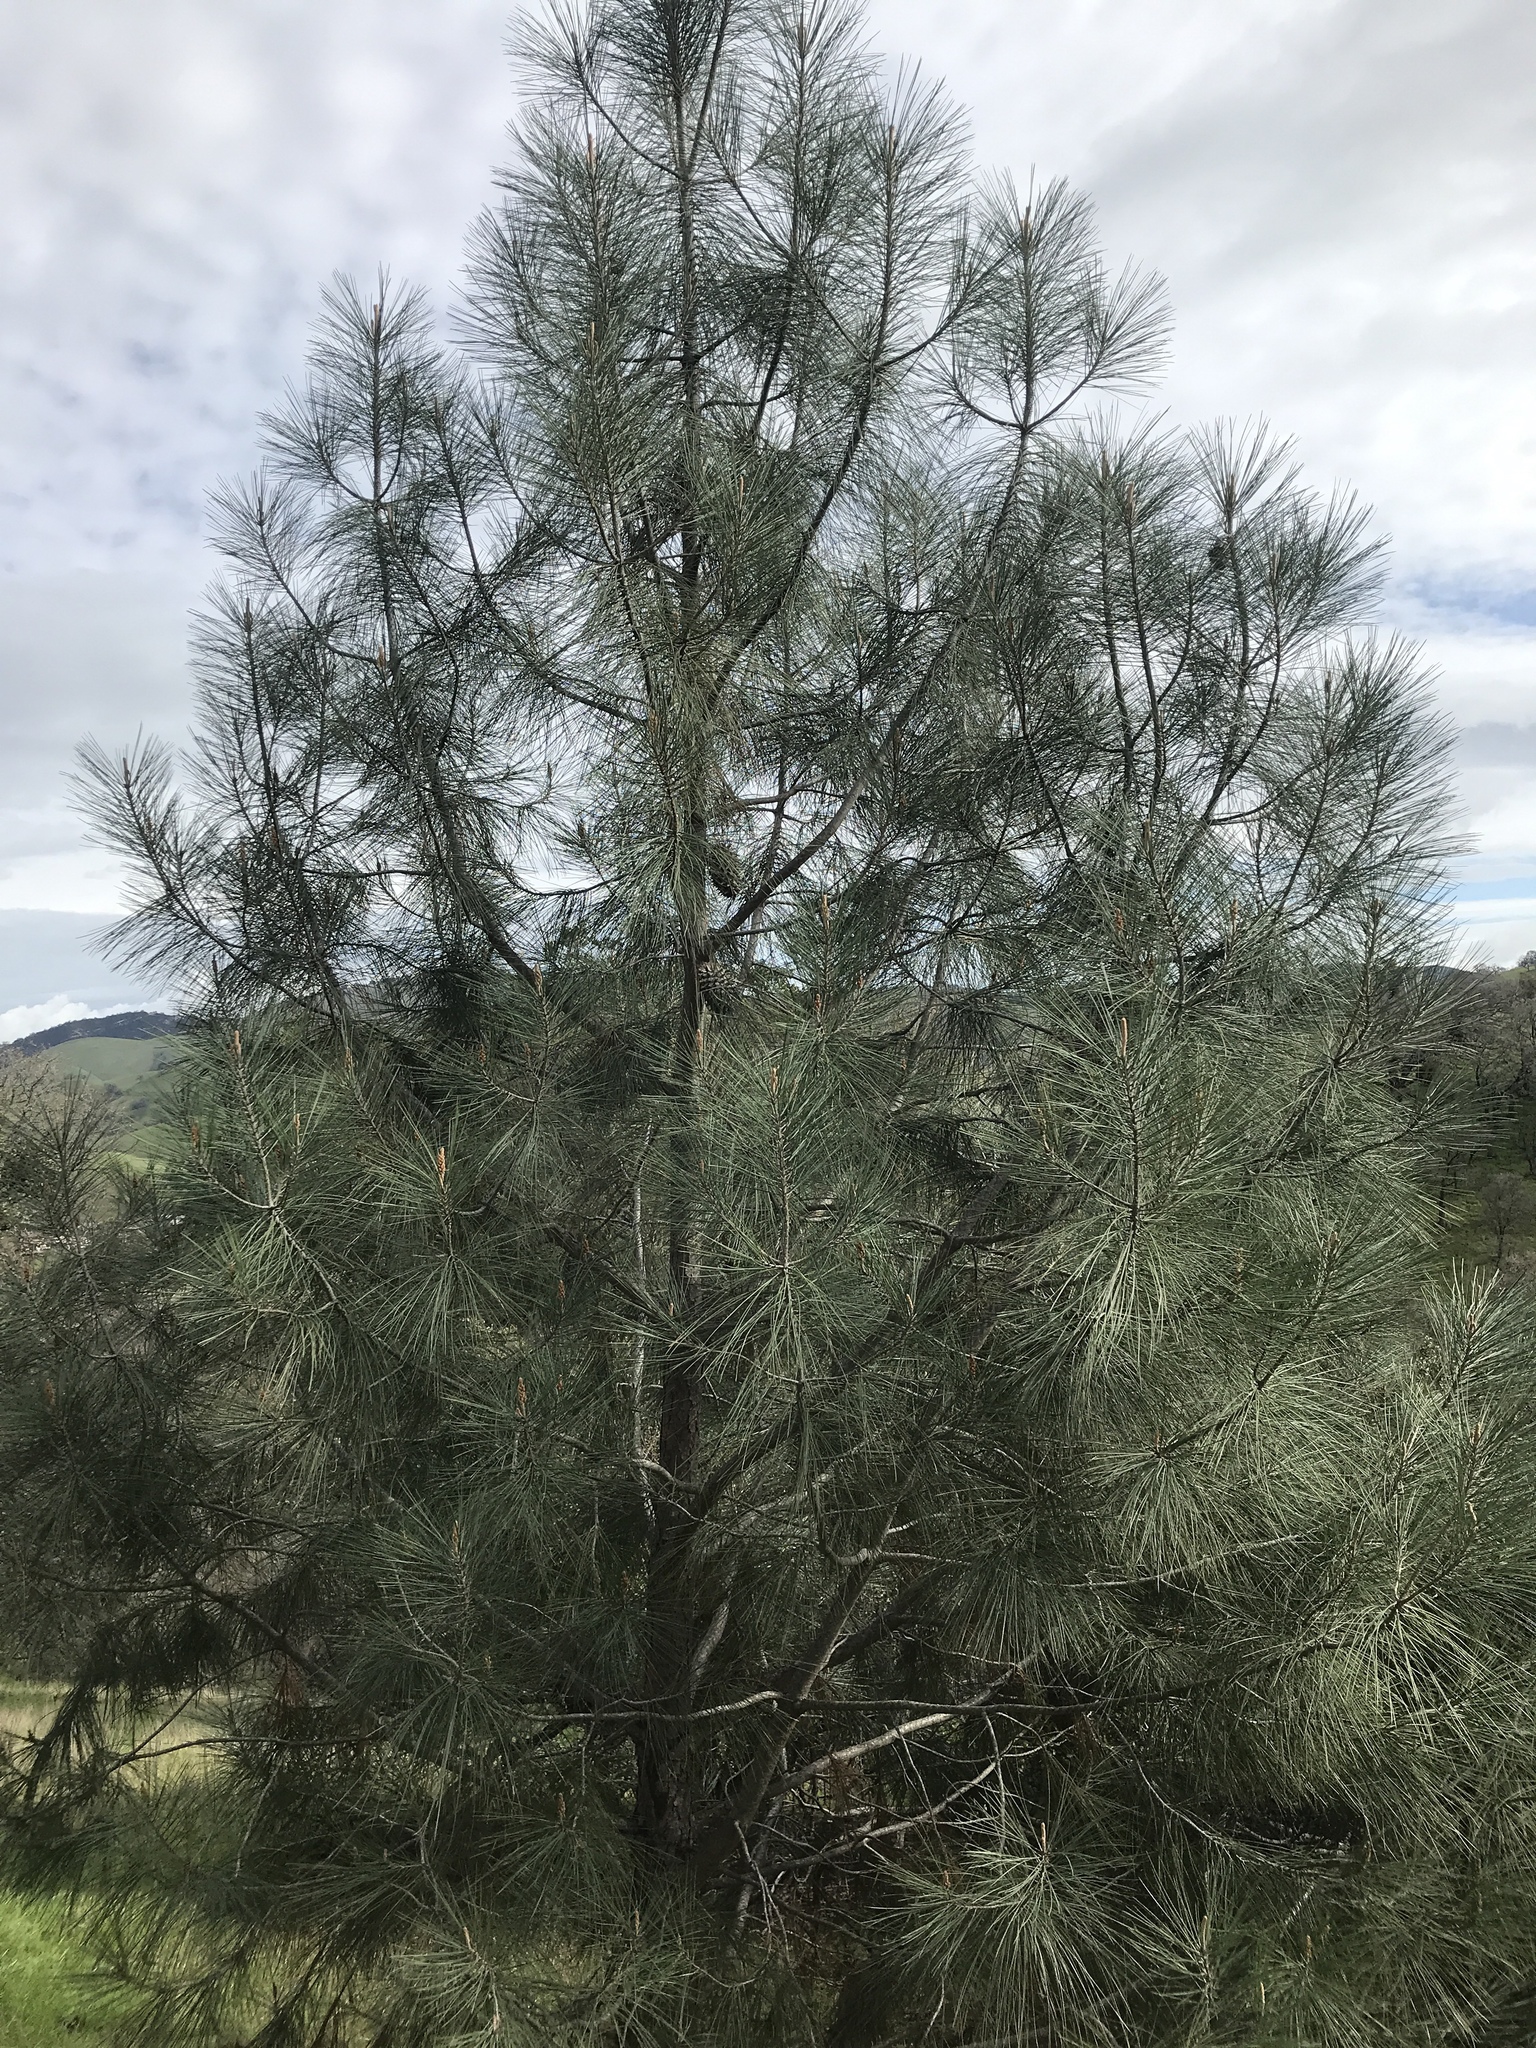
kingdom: Plantae
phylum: Tracheophyta
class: Pinopsida
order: Pinales
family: Pinaceae
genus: Pinus
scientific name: Pinus sabiniana
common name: Bull pine
